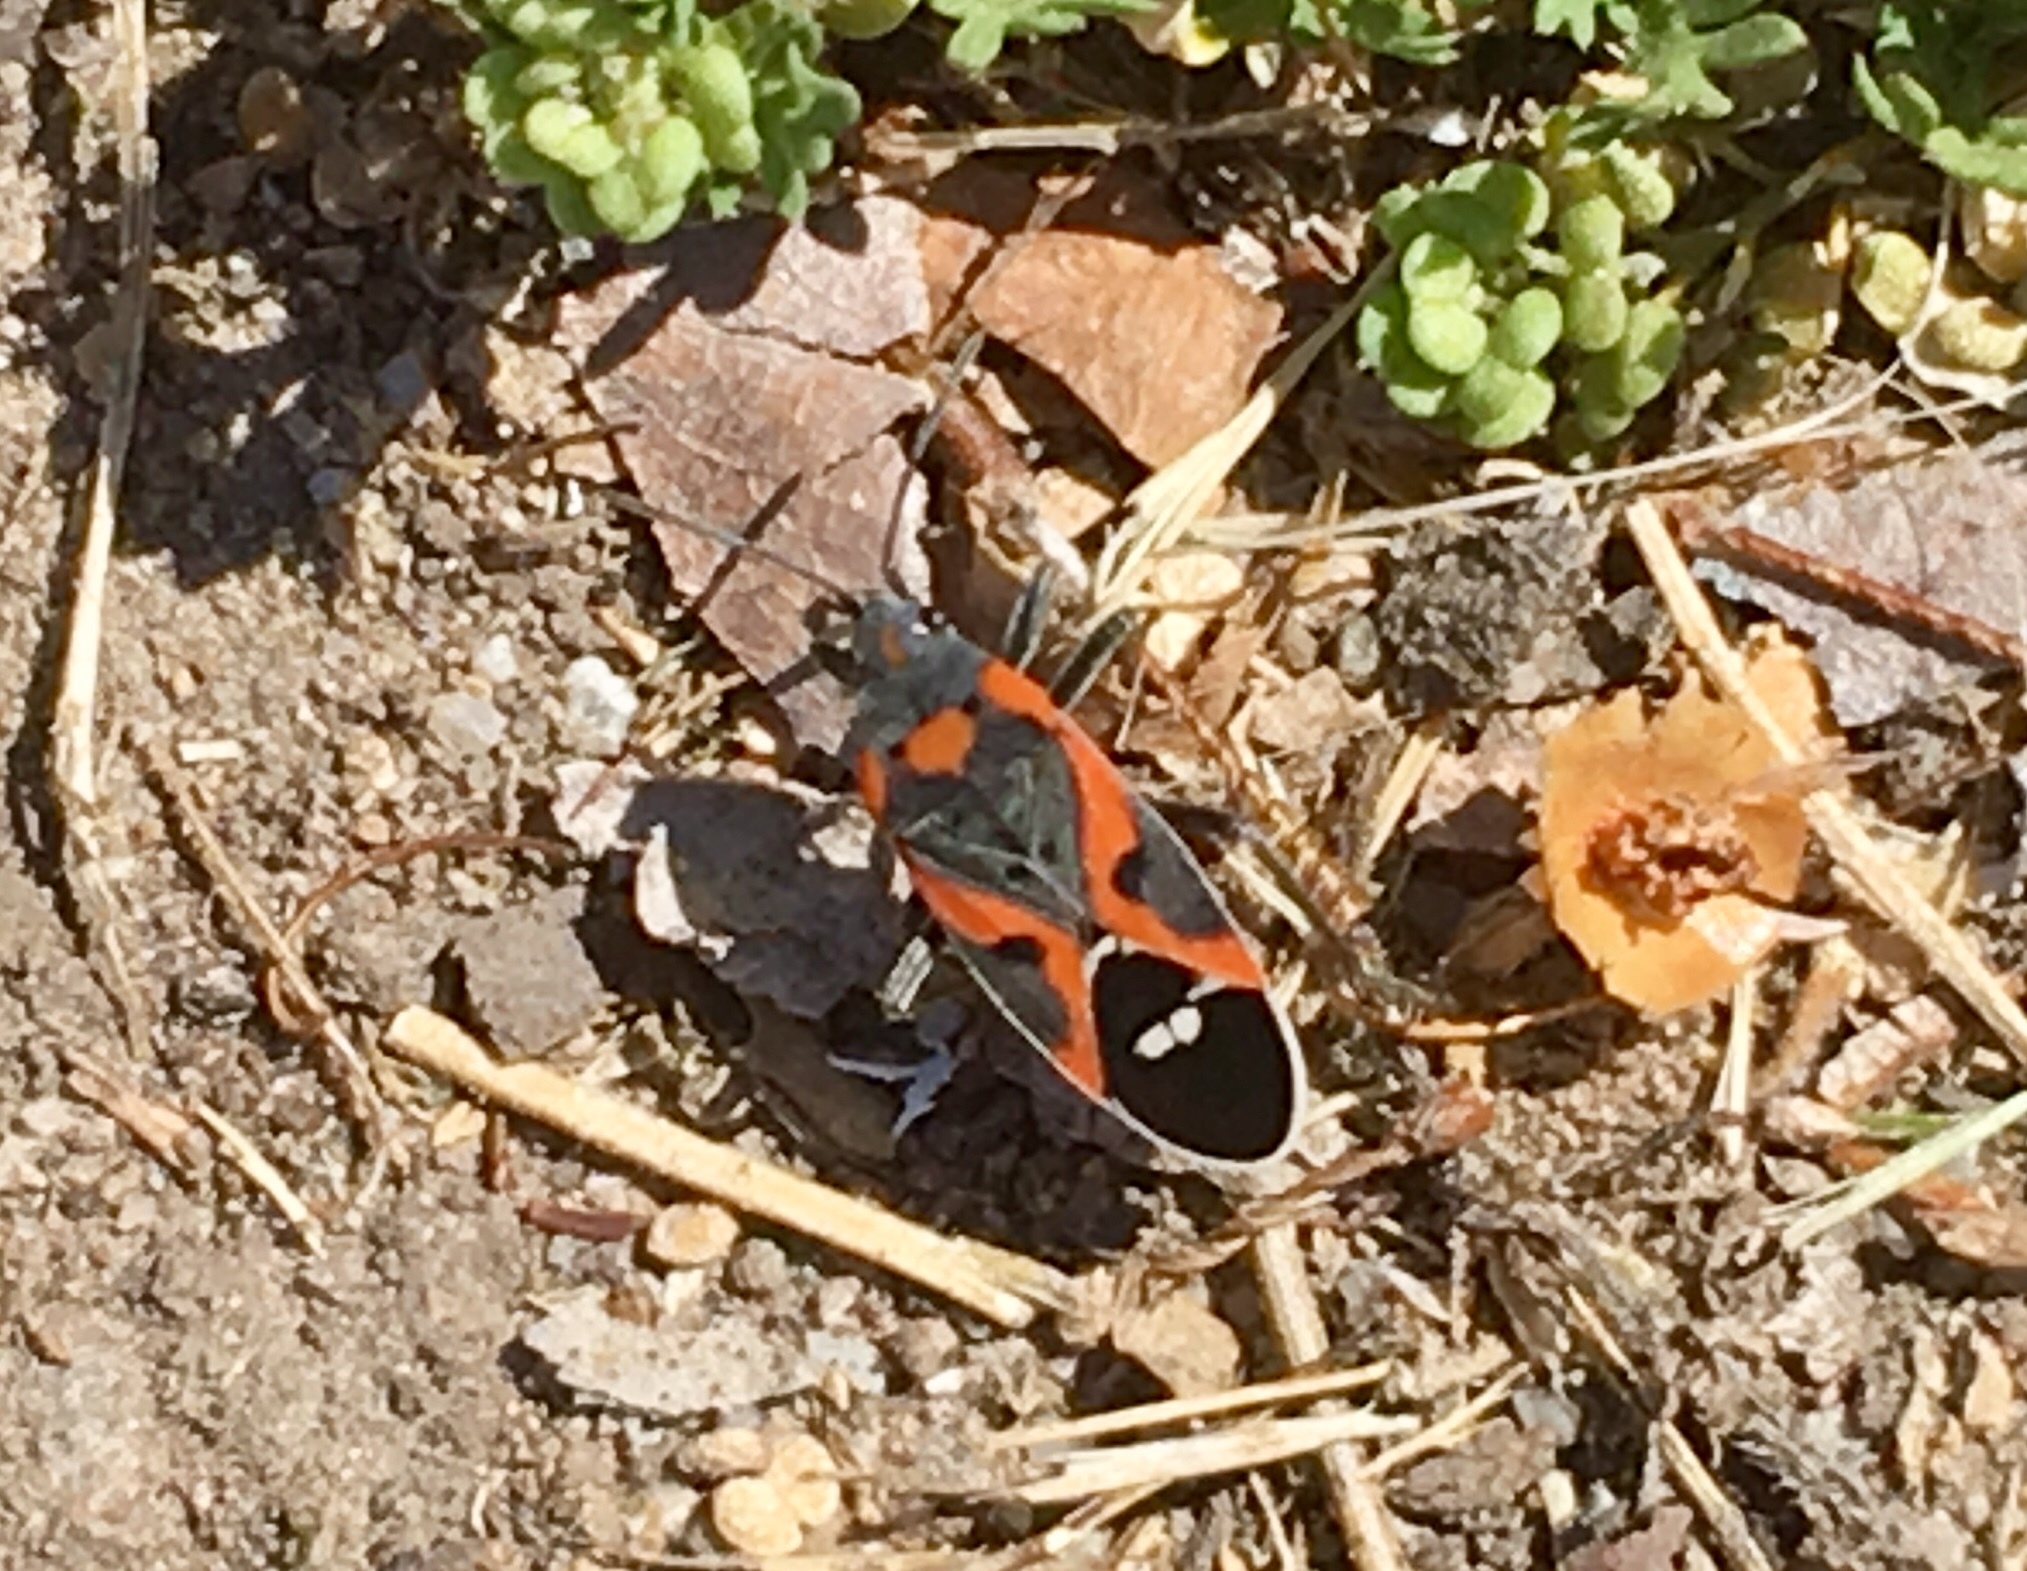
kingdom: Animalia
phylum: Arthropoda
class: Insecta
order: Hemiptera
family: Lygaeidae
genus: Lygaeus
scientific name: Lygaeus kalmii
